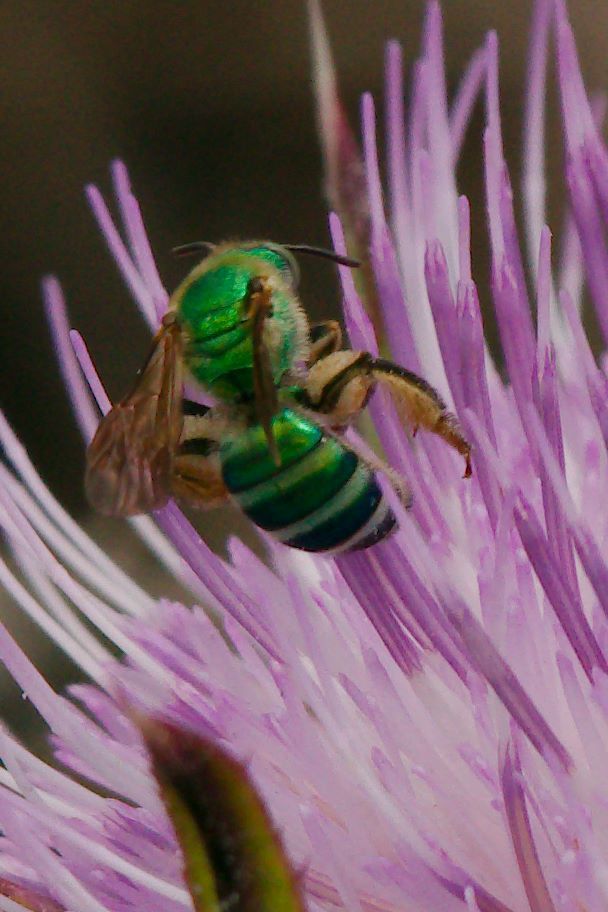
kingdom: Animalia
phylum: Arthropoda
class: Insecta
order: Hymenoptera
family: Halictidae
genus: Agapostemon
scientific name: Agapostemon splendens
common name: Brown-winged striped sweat bee
